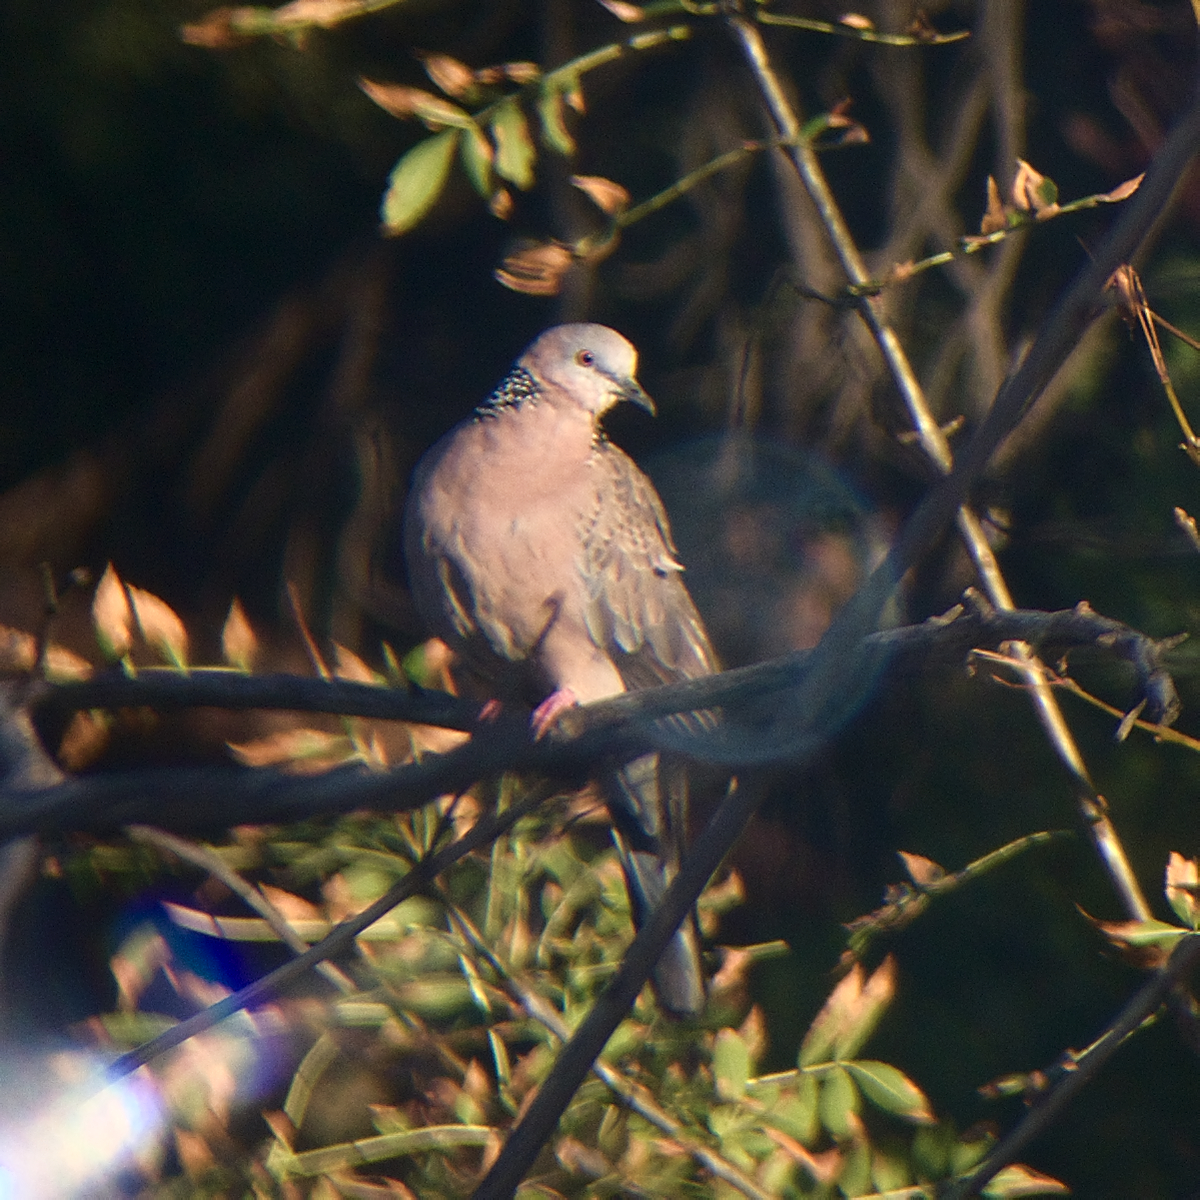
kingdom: Animalia
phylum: Chordata
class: Aves
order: Columbiformes
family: Columbidae
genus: Spilopelia
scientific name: Spilopelia chinensis
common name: Spotted dove
